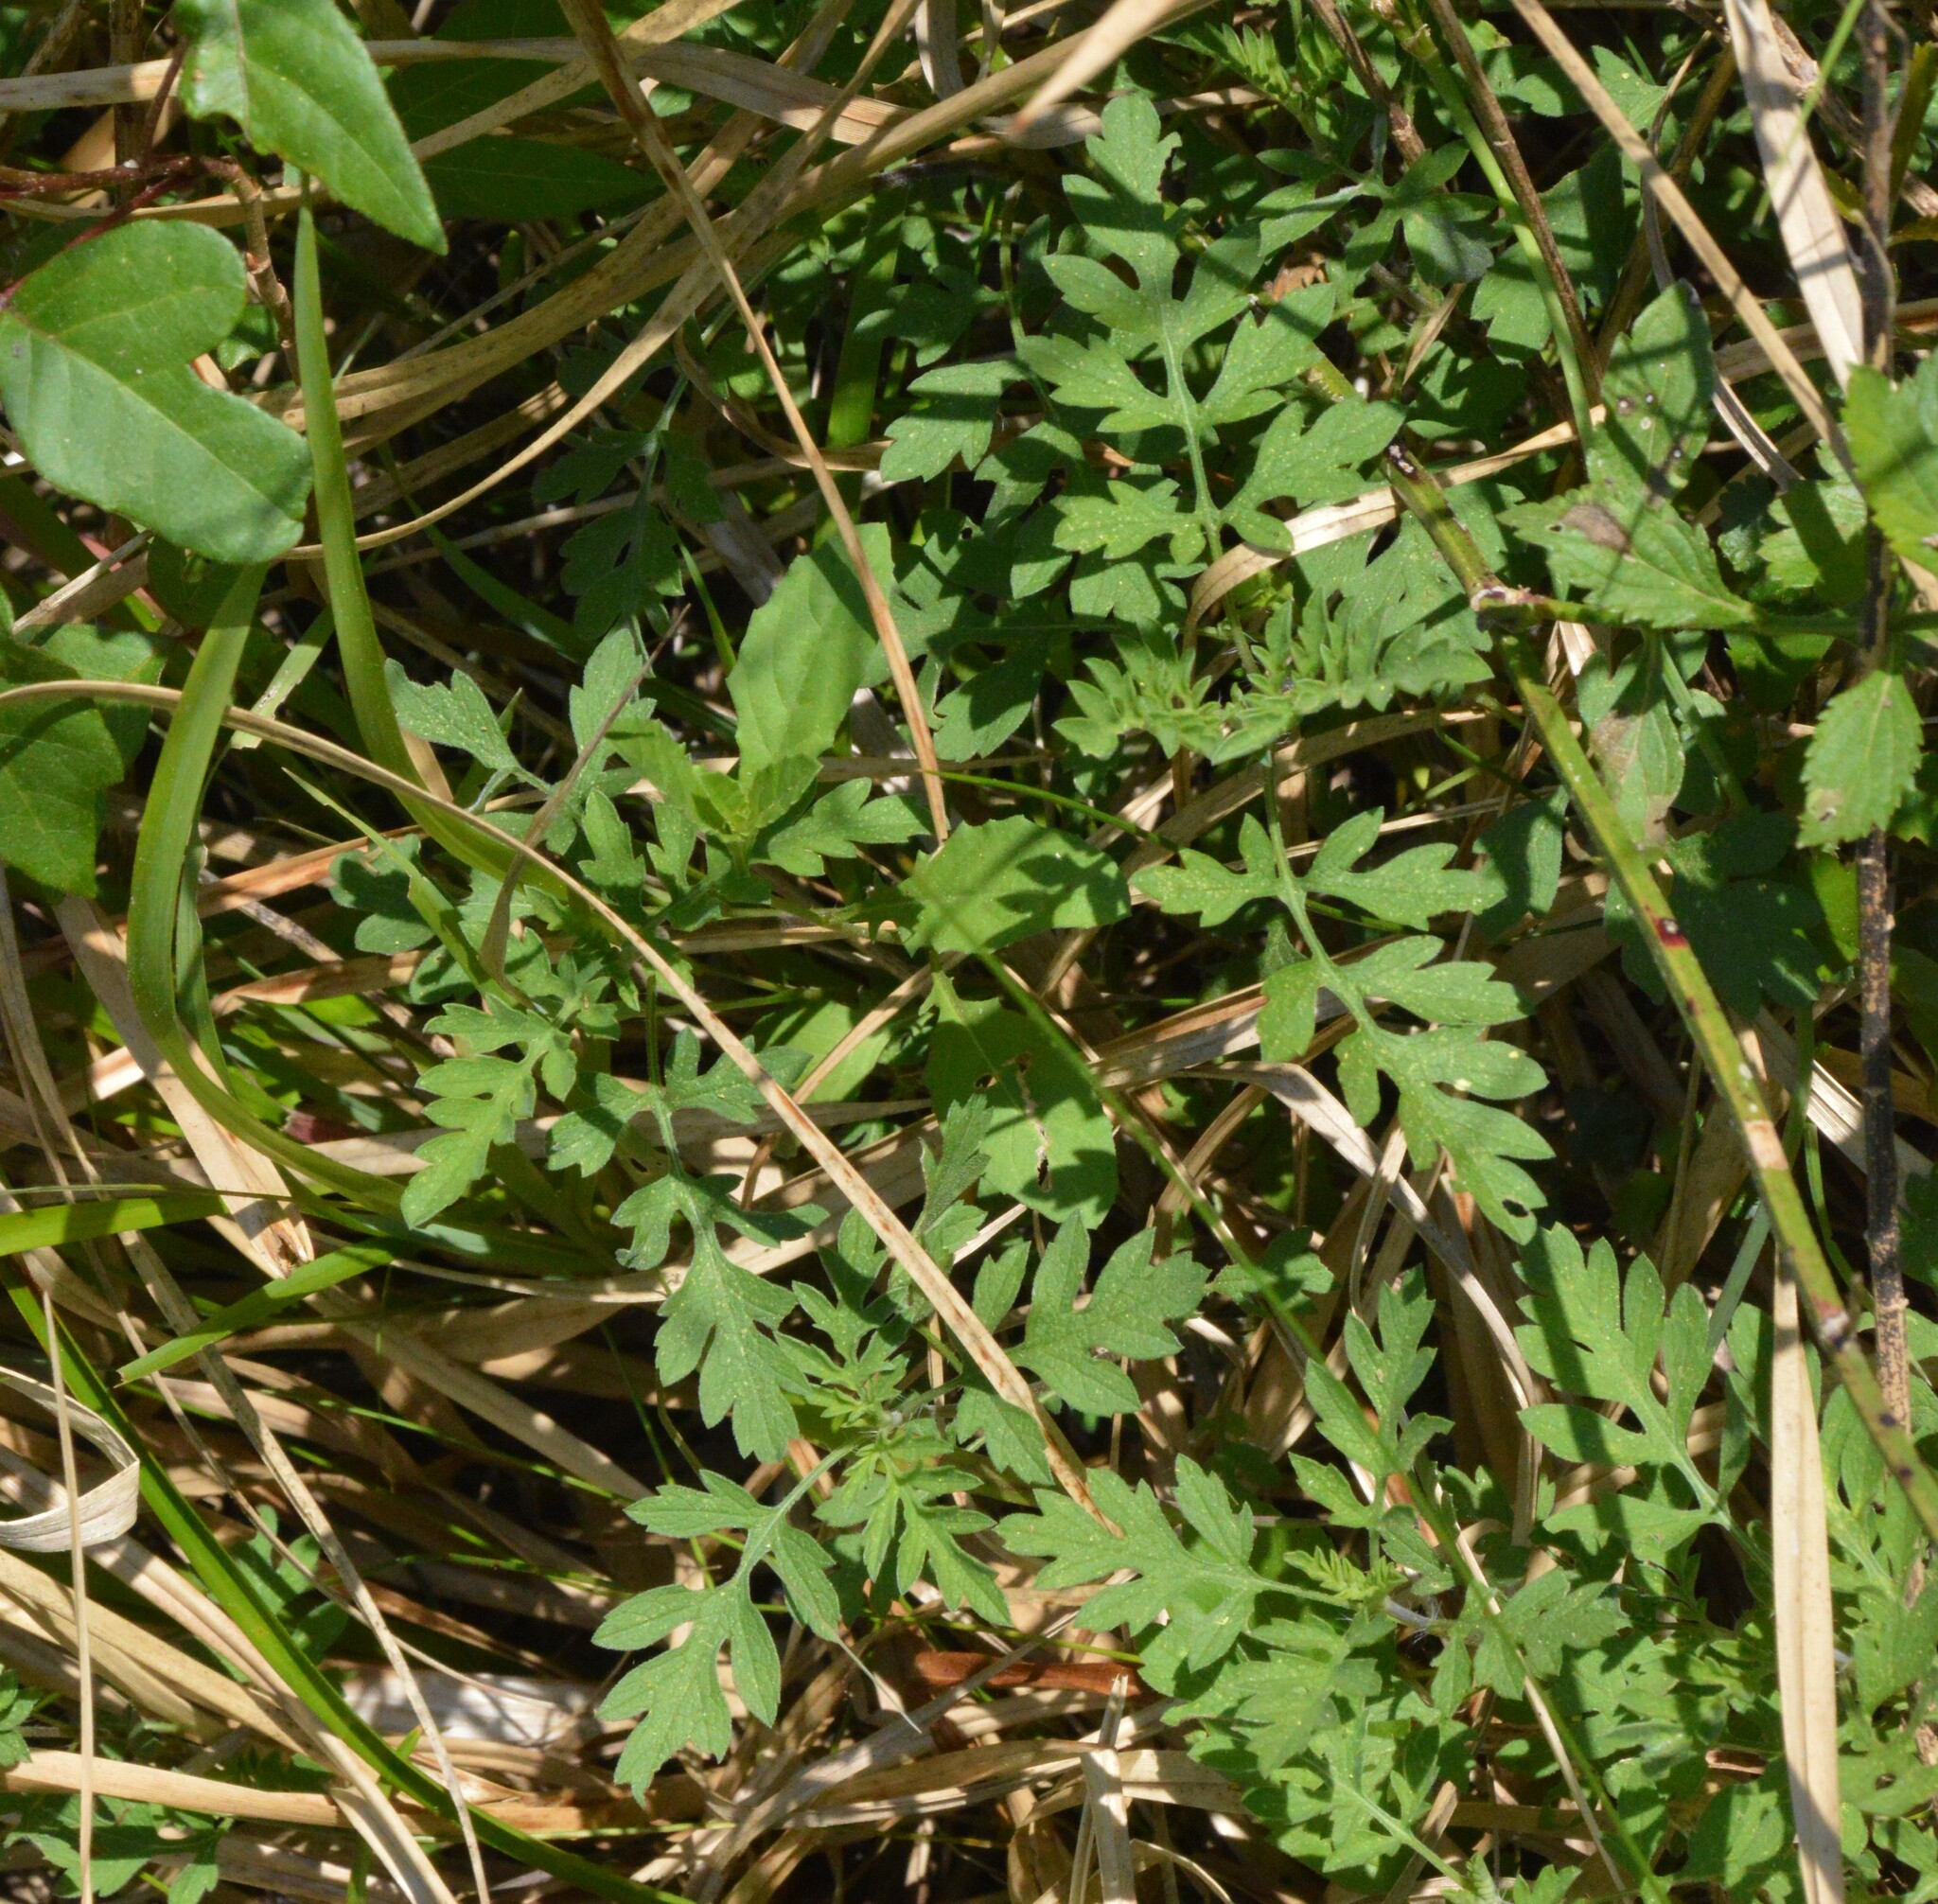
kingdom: Plantae
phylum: Tracheophyta
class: Magnoliopsida
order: Asterales
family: Asteraceae
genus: Ambrosia
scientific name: Ambrosia psilostachya
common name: Perennial ragweed
